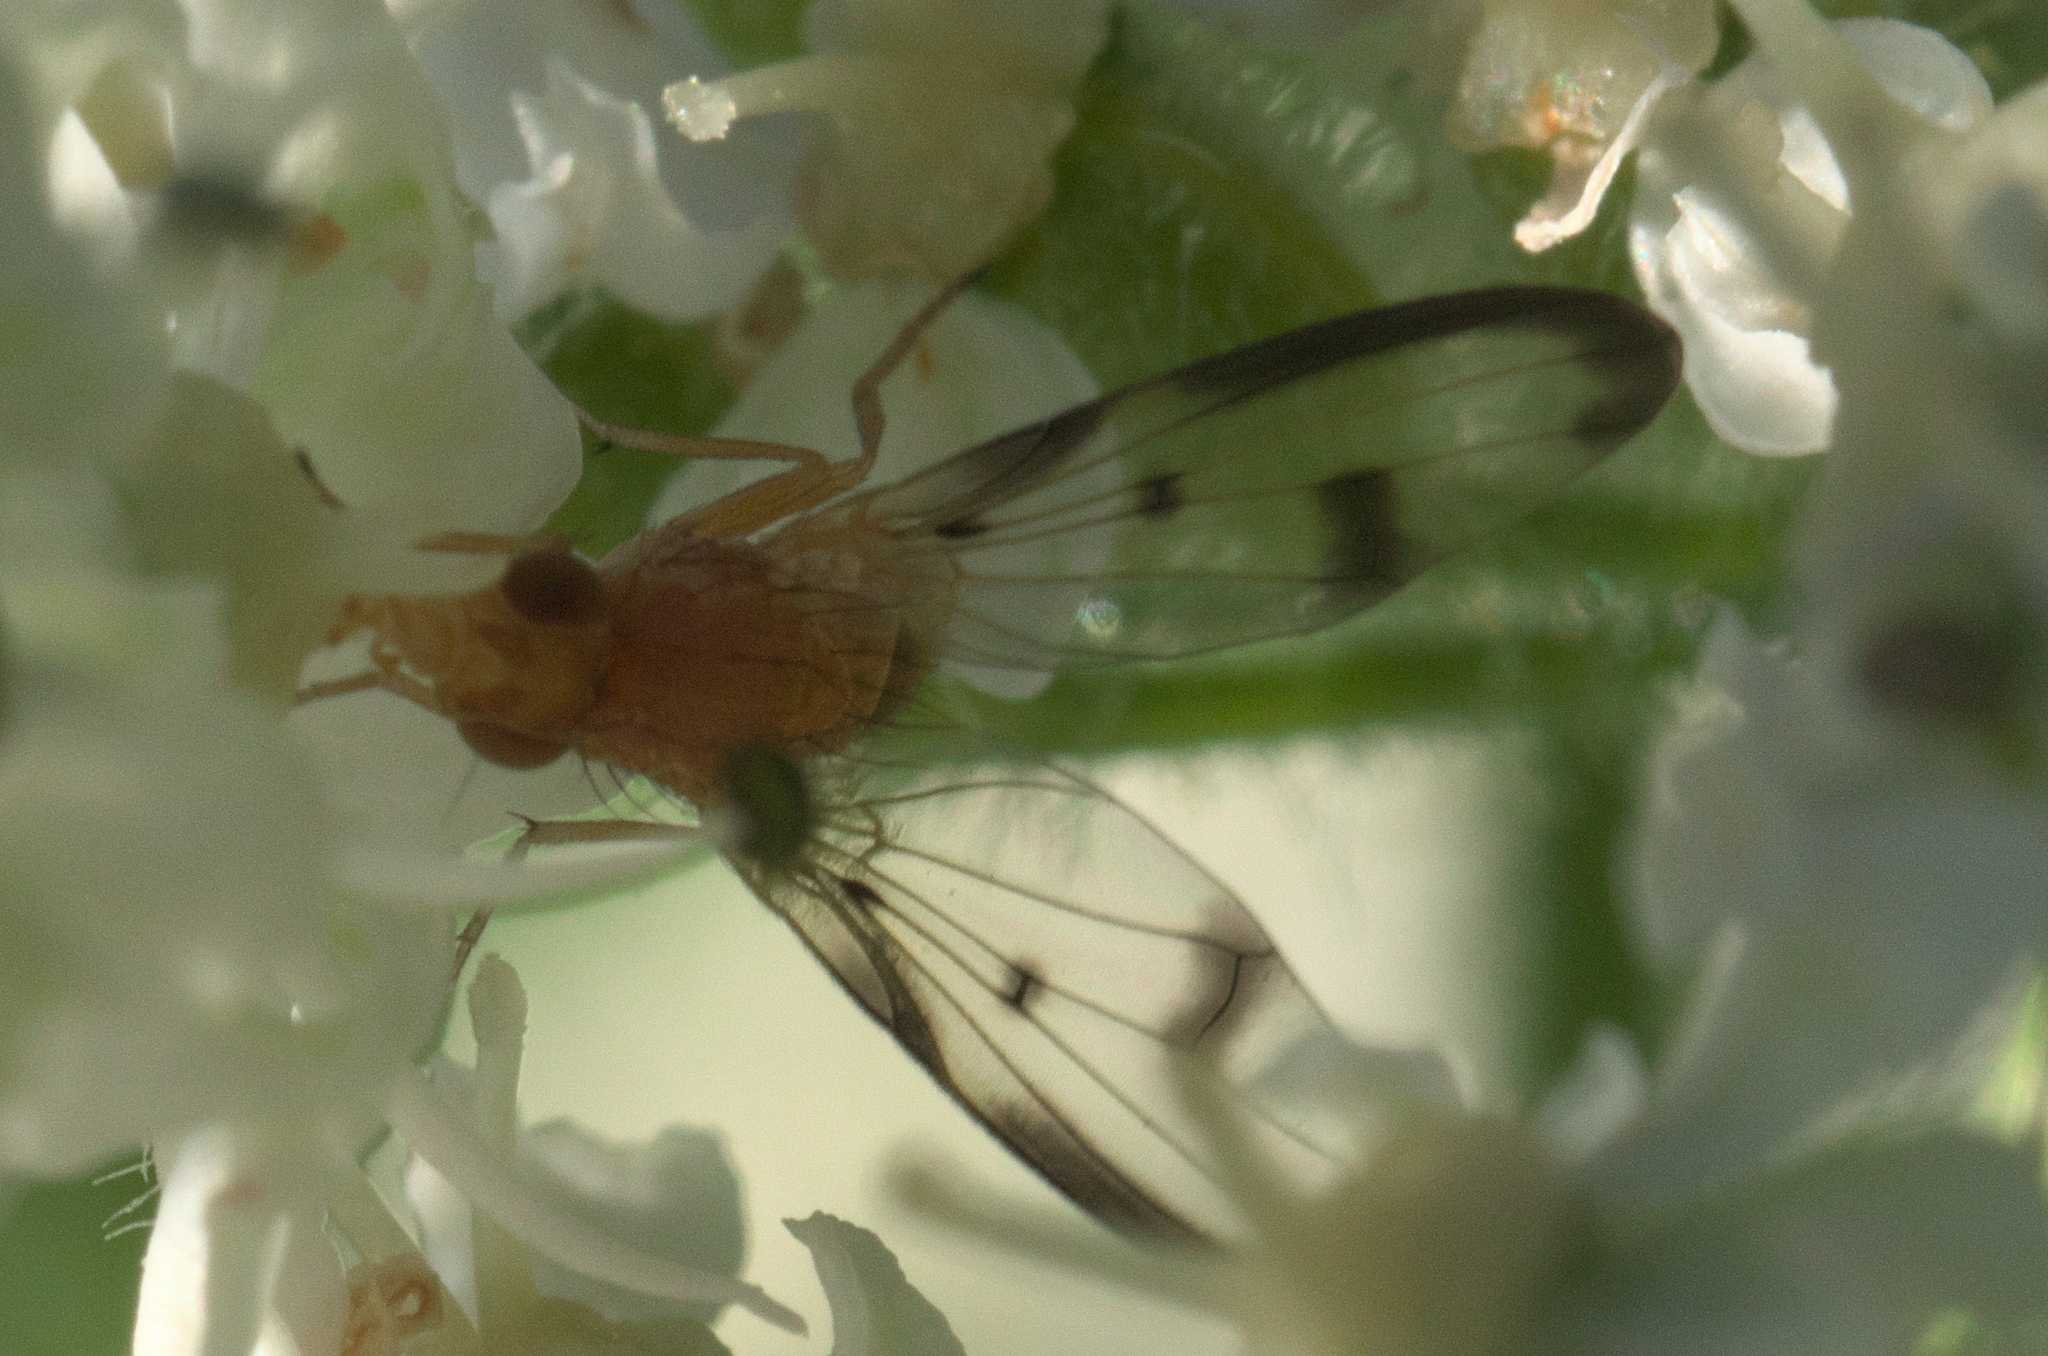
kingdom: Animalia
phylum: Arthropoda
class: Insecta
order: Diptera
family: Pallopteridae
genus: Toxonevra
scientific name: Toxonevra jucunda
